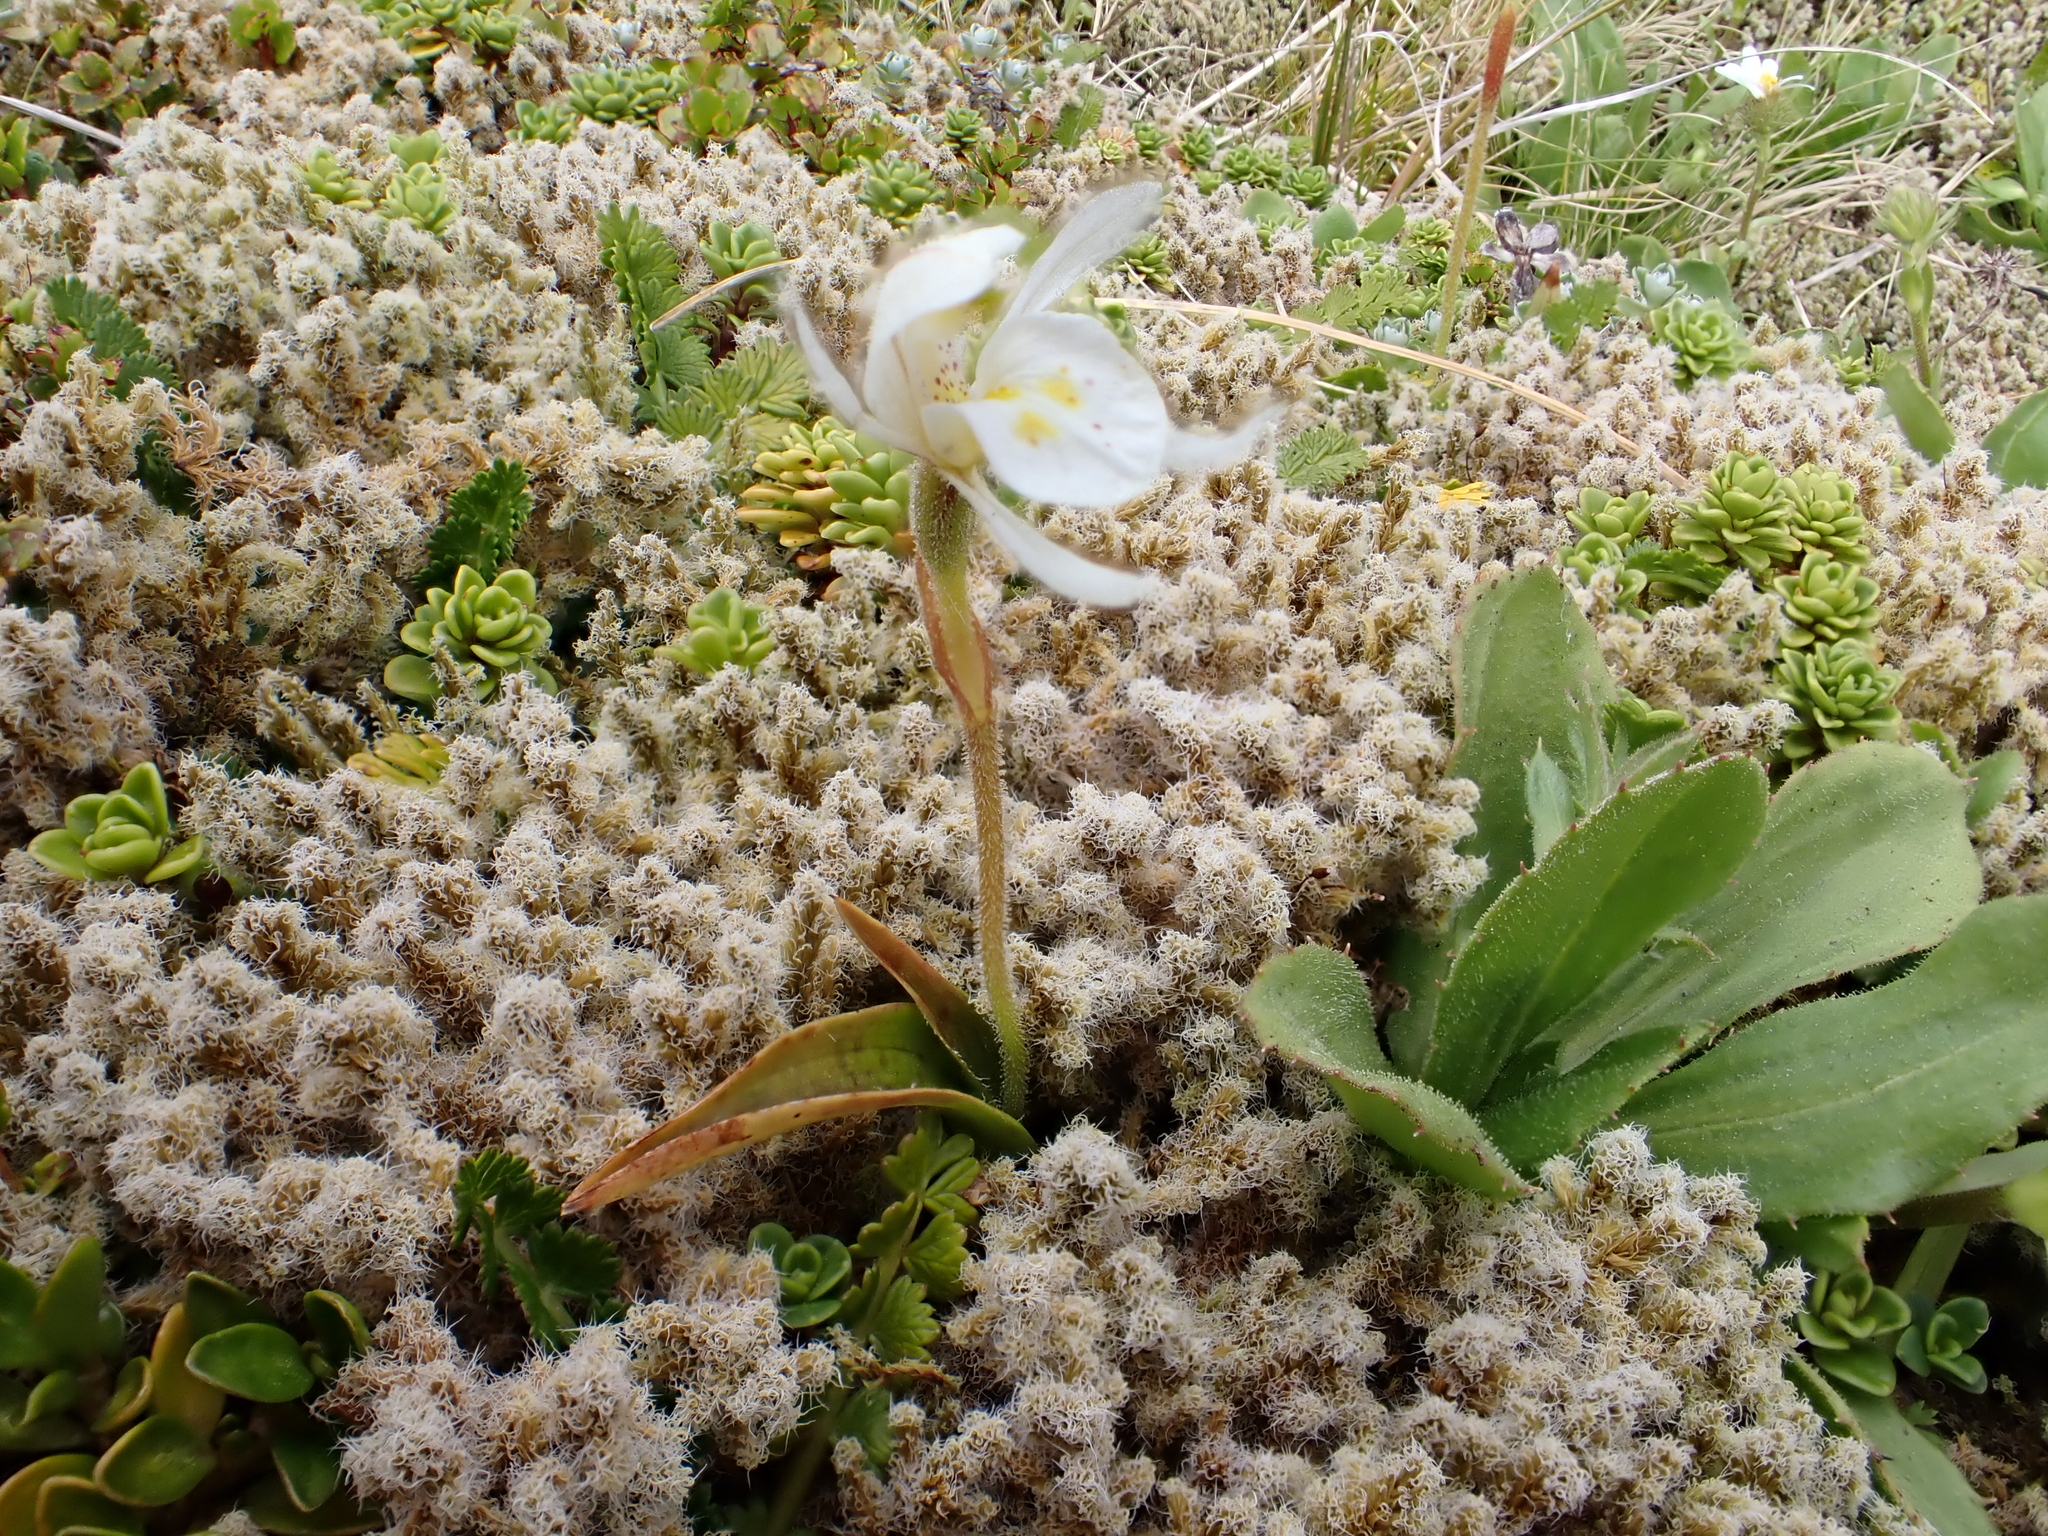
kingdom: Plantae
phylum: Tracheophyta
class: Liliopsida
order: Asparagales
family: Orchidaceae
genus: Aporostylis
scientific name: Aporostylis bifolia
